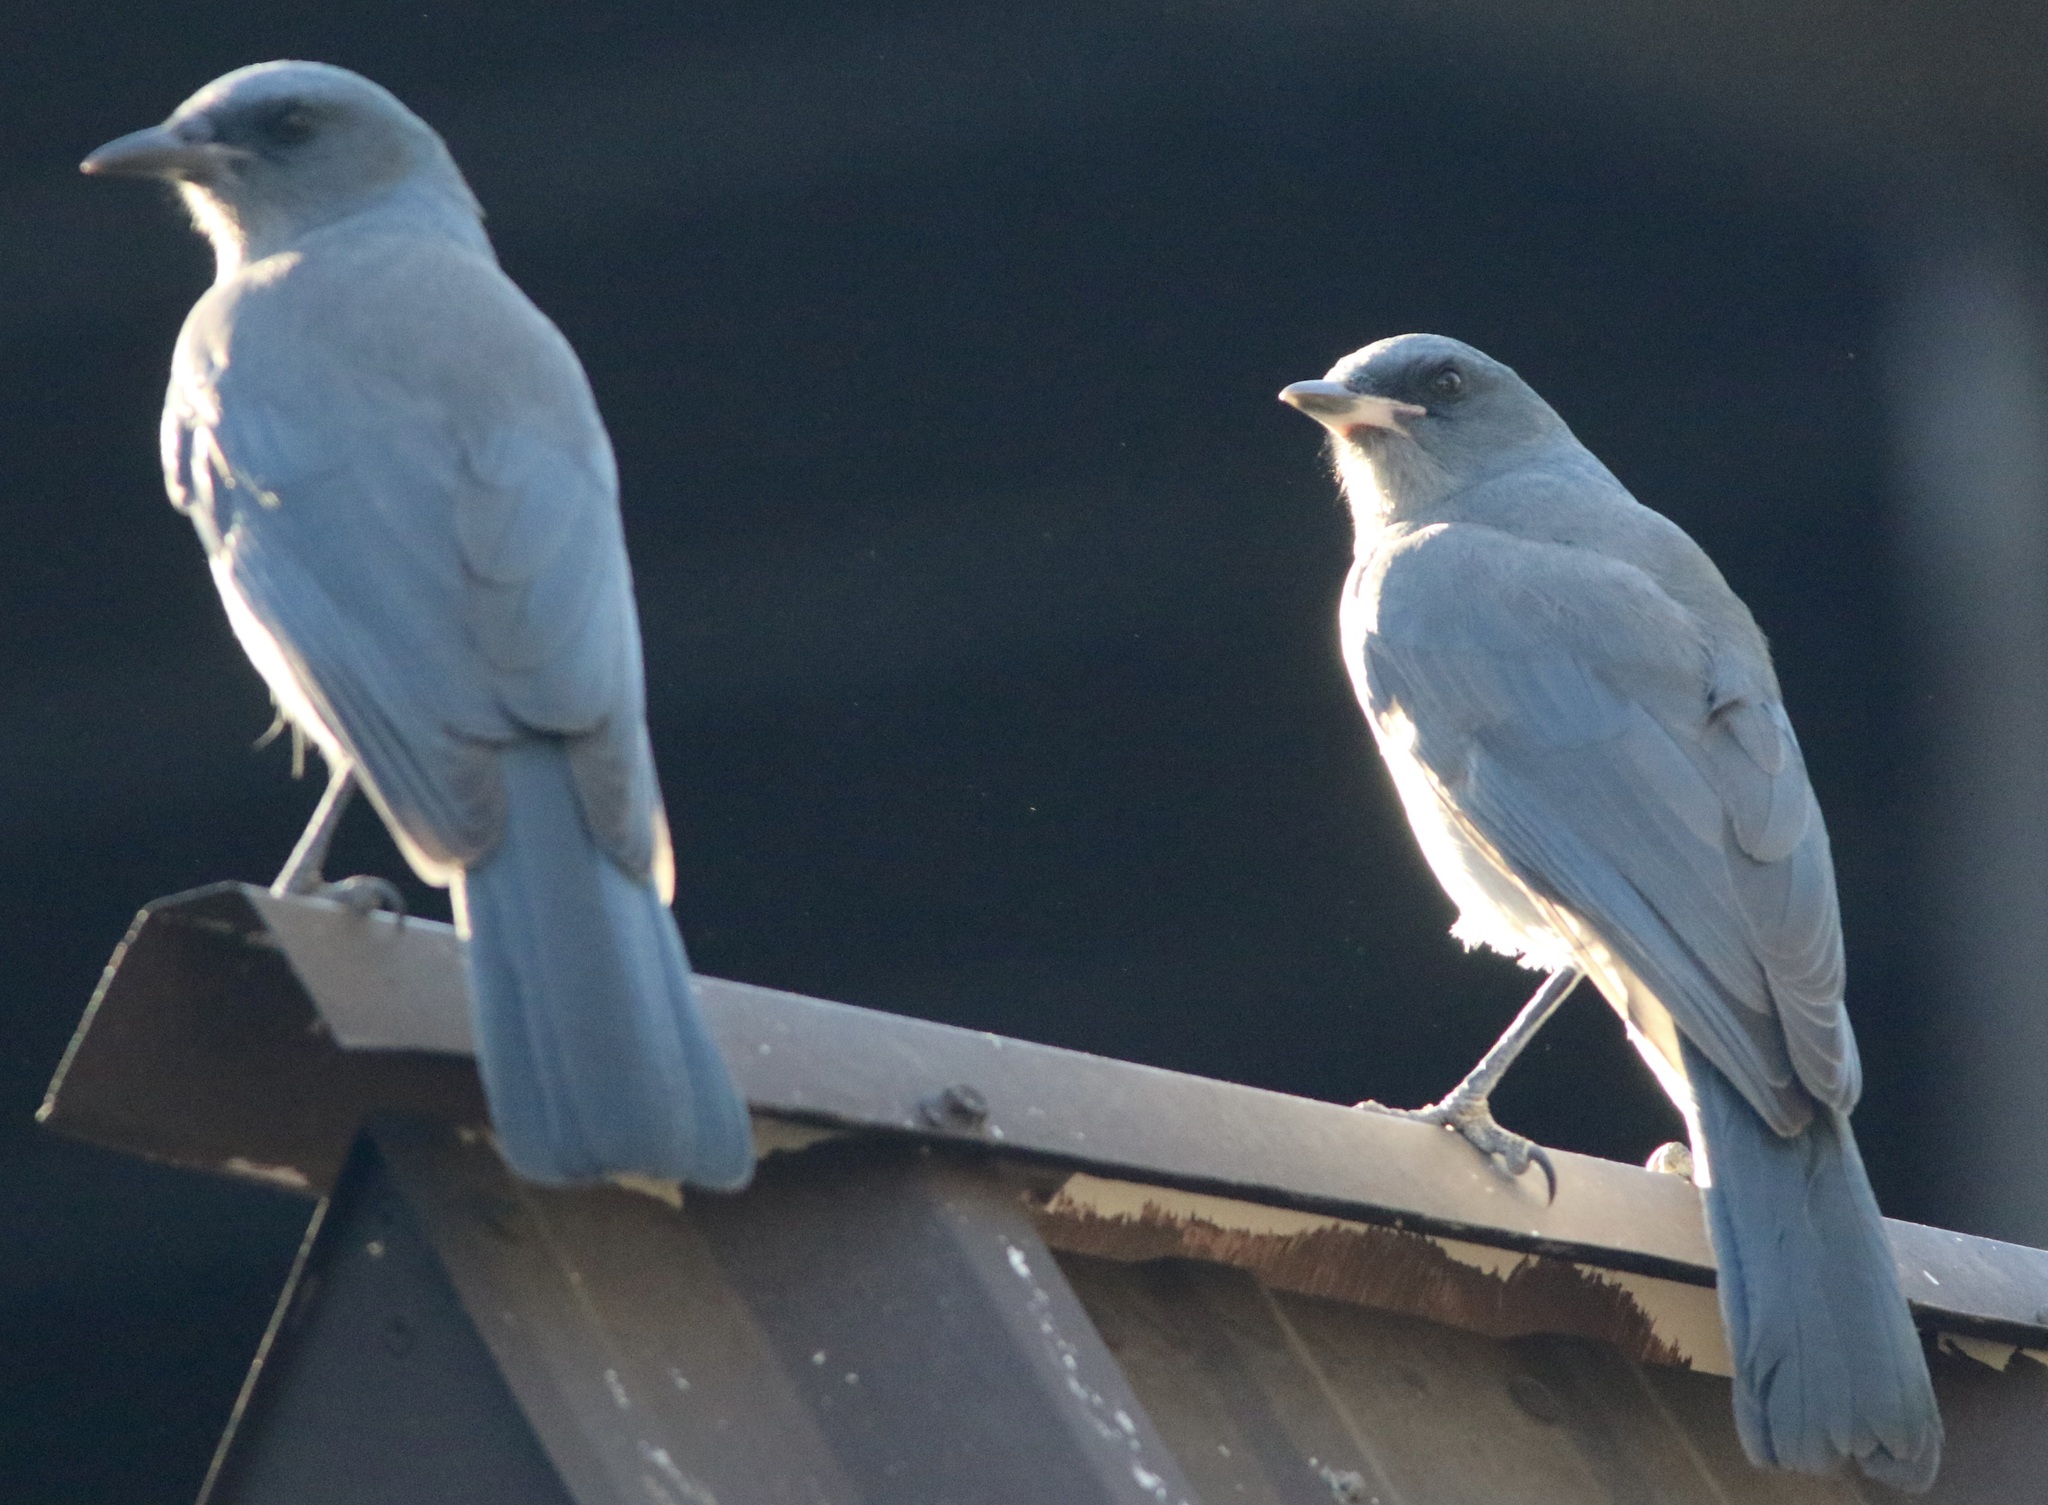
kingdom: Animalia
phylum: Chordata
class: Aves
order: Passeriformes
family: Corvidae
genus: Aphelocoma
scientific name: Aphelocoma wollweberi
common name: Mexican jay
